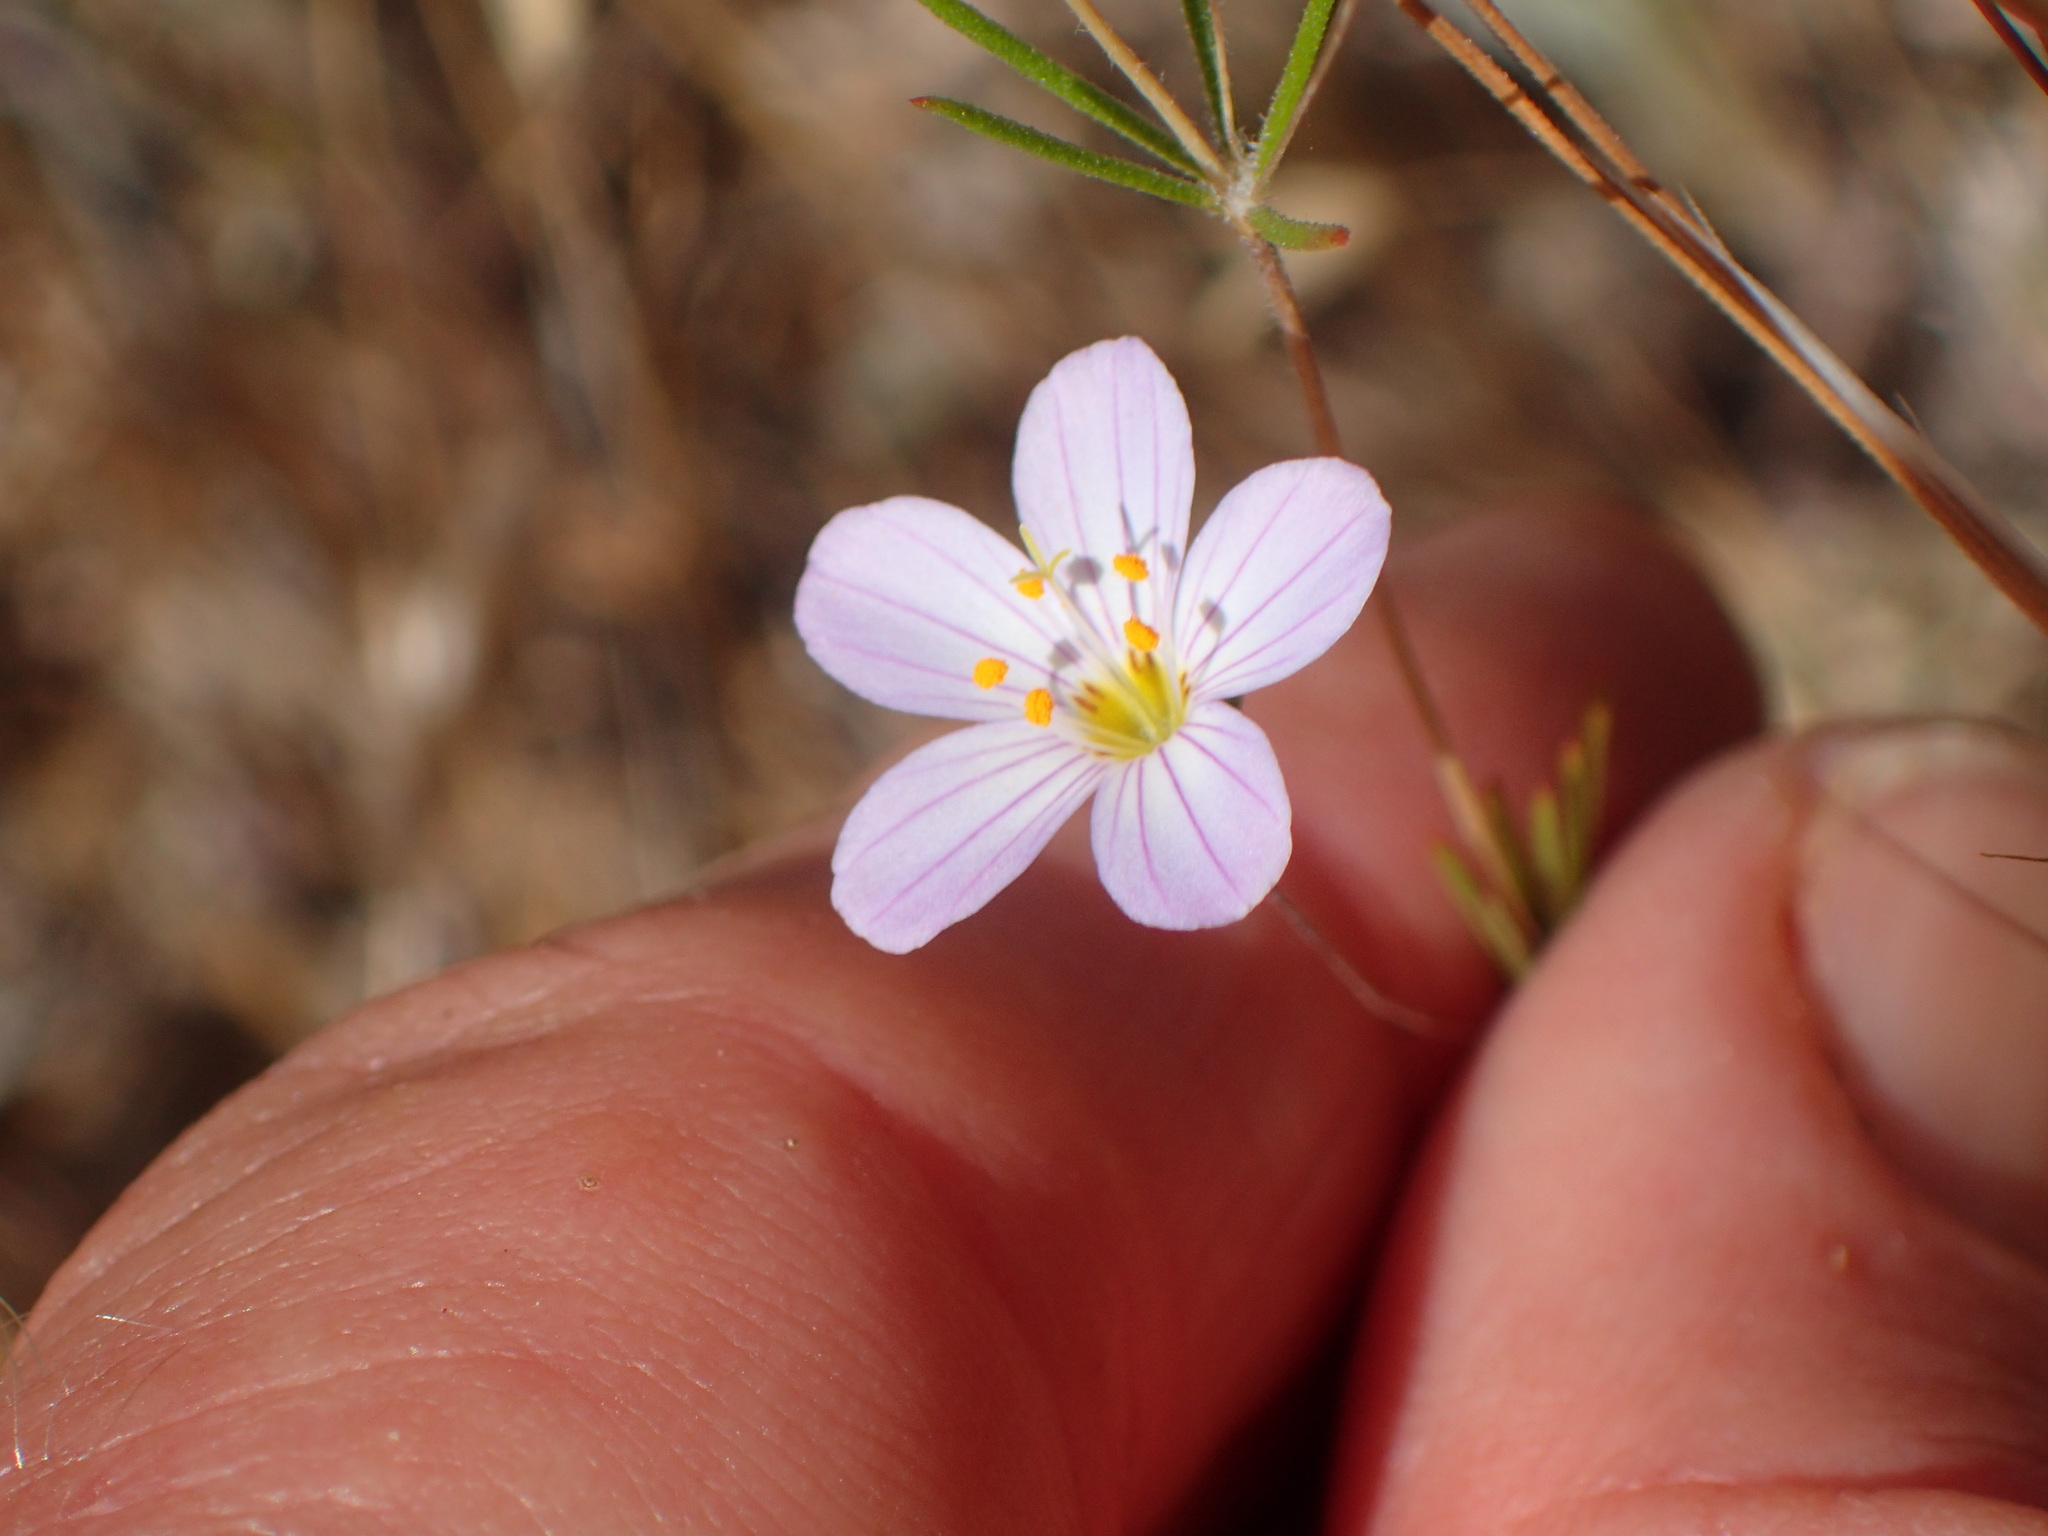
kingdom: Plantae
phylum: Tracheophyta
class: Magnoliopsida
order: Ericales
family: Polemoniaceae
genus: Leptosiphon
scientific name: Leptosiphon liniflorus
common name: Narrowflower flaxflower
